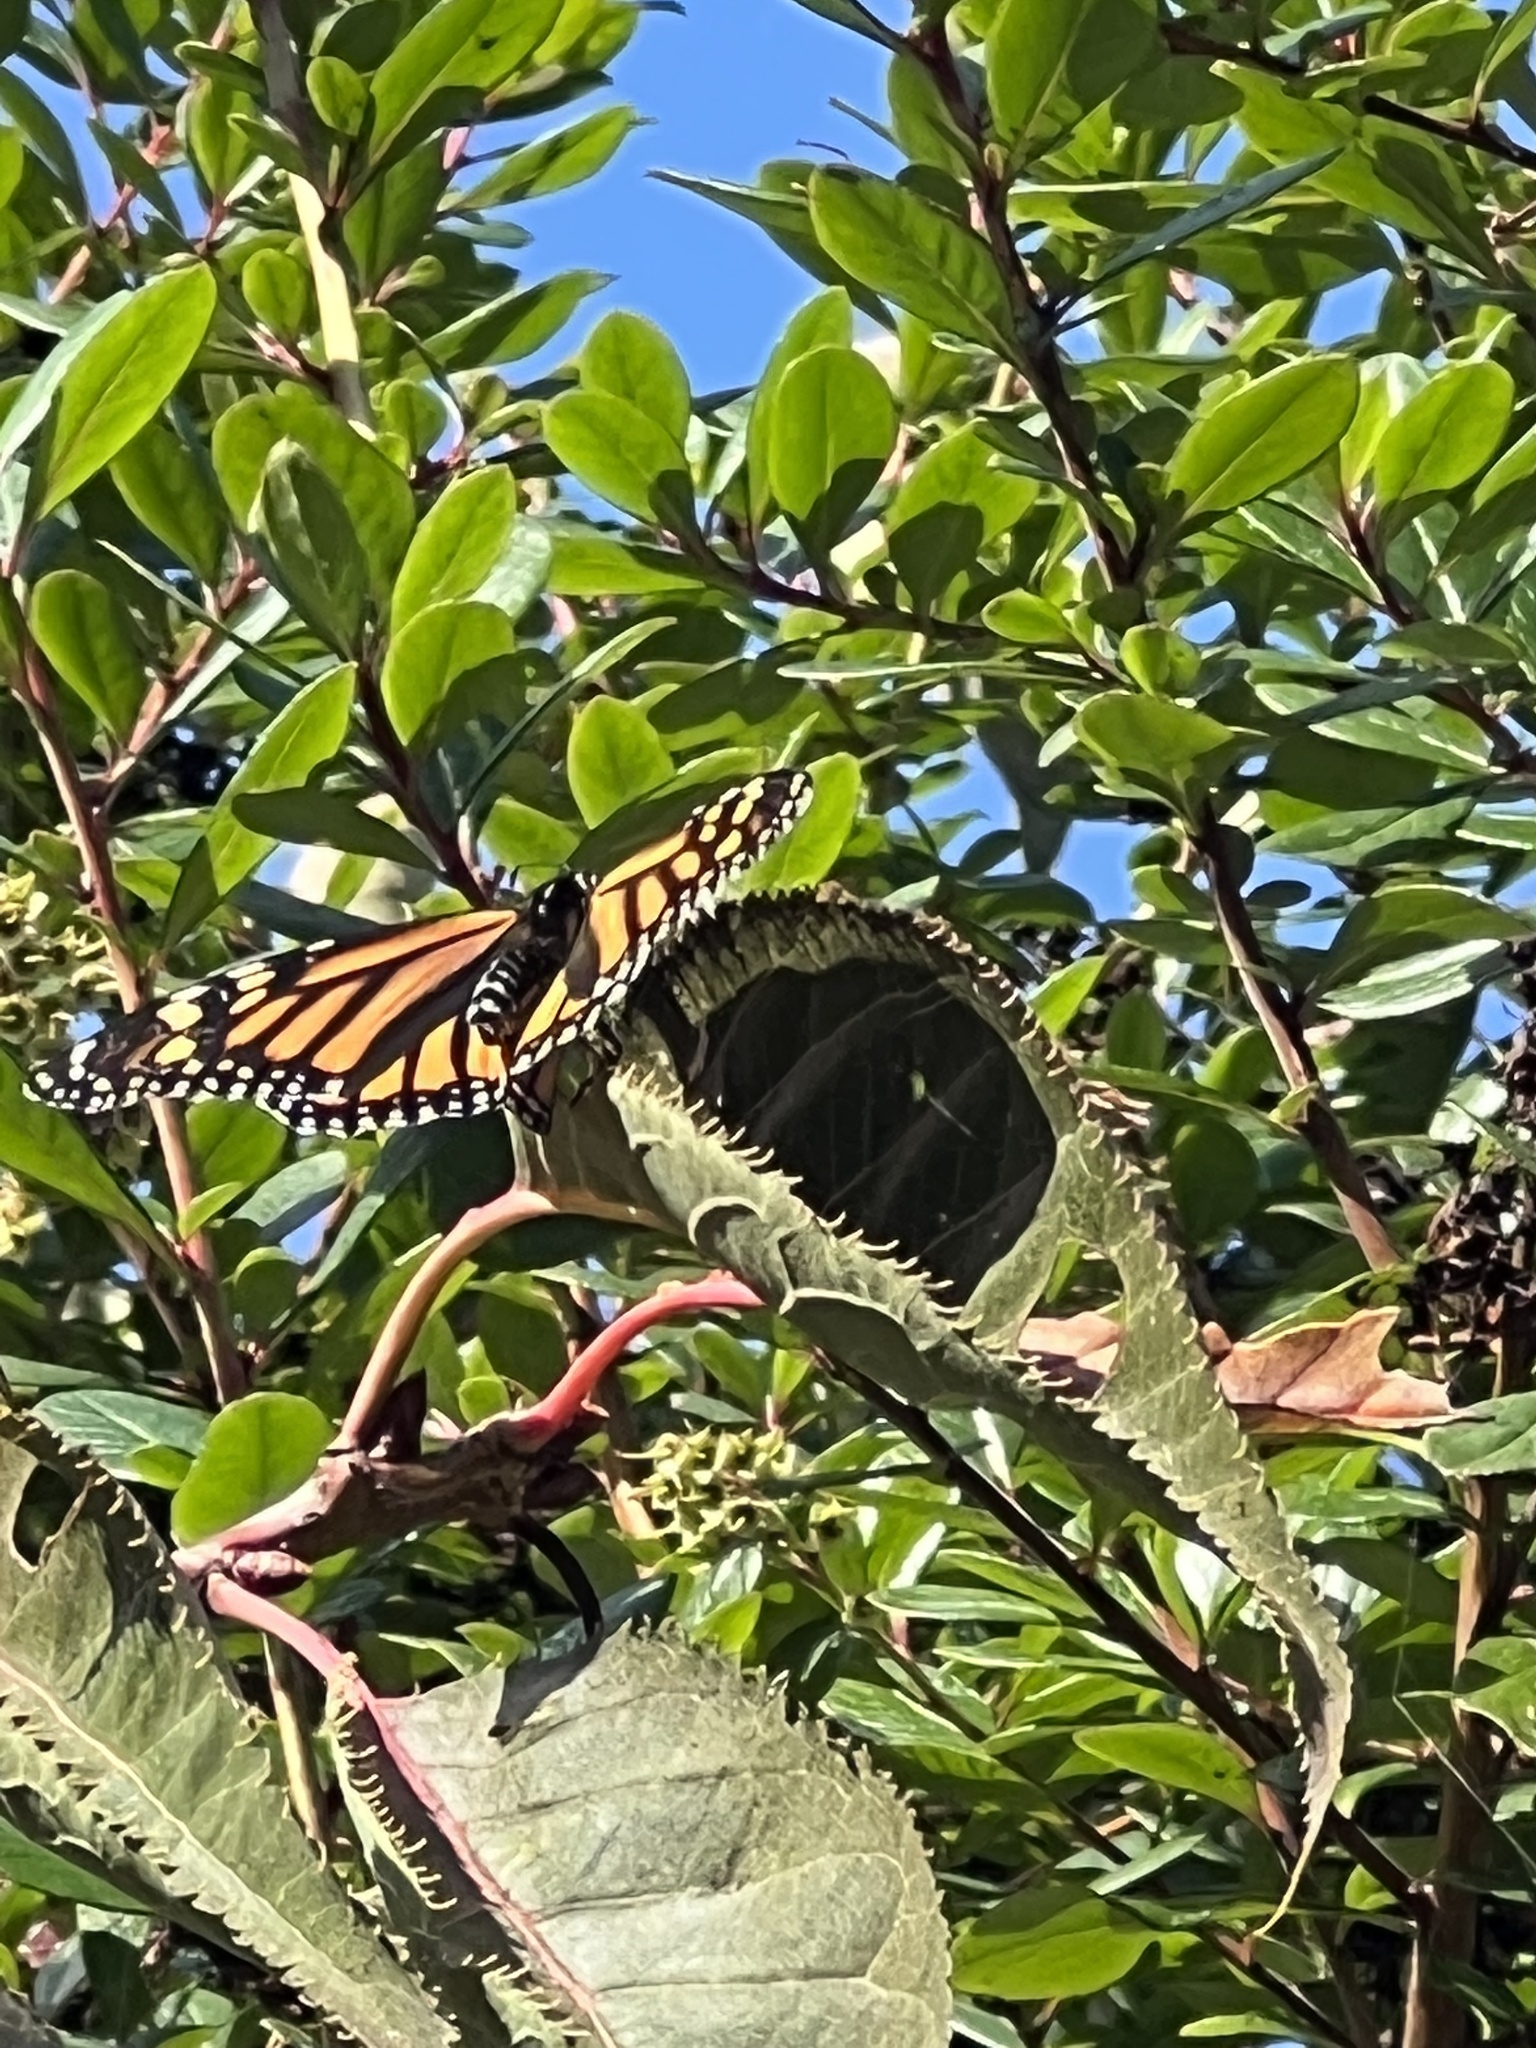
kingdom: Animalia
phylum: Arthropoda
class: Insecta
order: Lepidoptera
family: Nymphalidae
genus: Danaus
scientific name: Danaus plexippus
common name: Monarch
